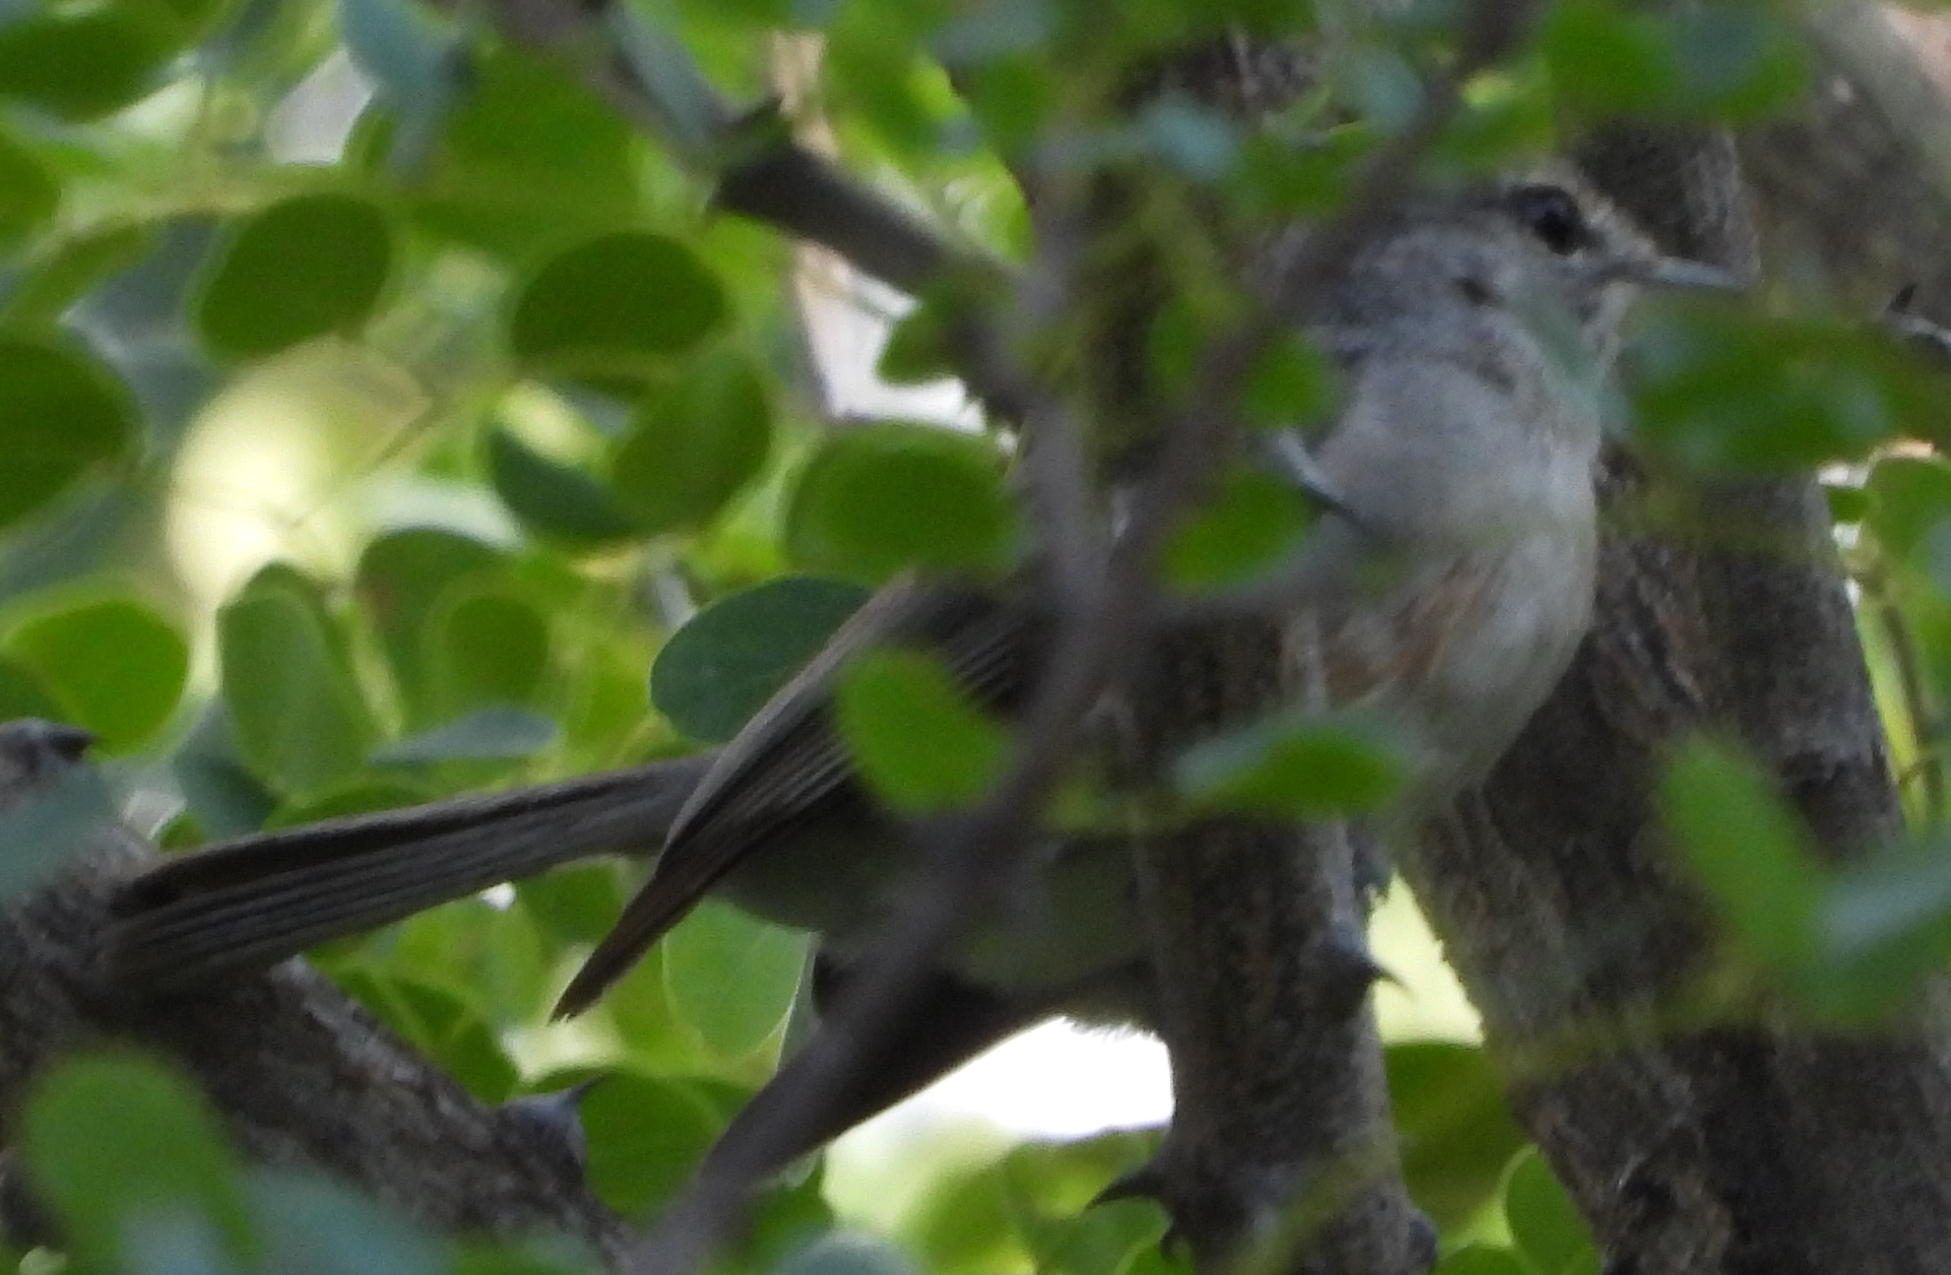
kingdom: Animalia
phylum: Chordata
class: Aves
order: Passeriformes
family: Muscicapidae
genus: Muscicapa
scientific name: Muscicapa caerulescens
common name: Ashy flycatcher
